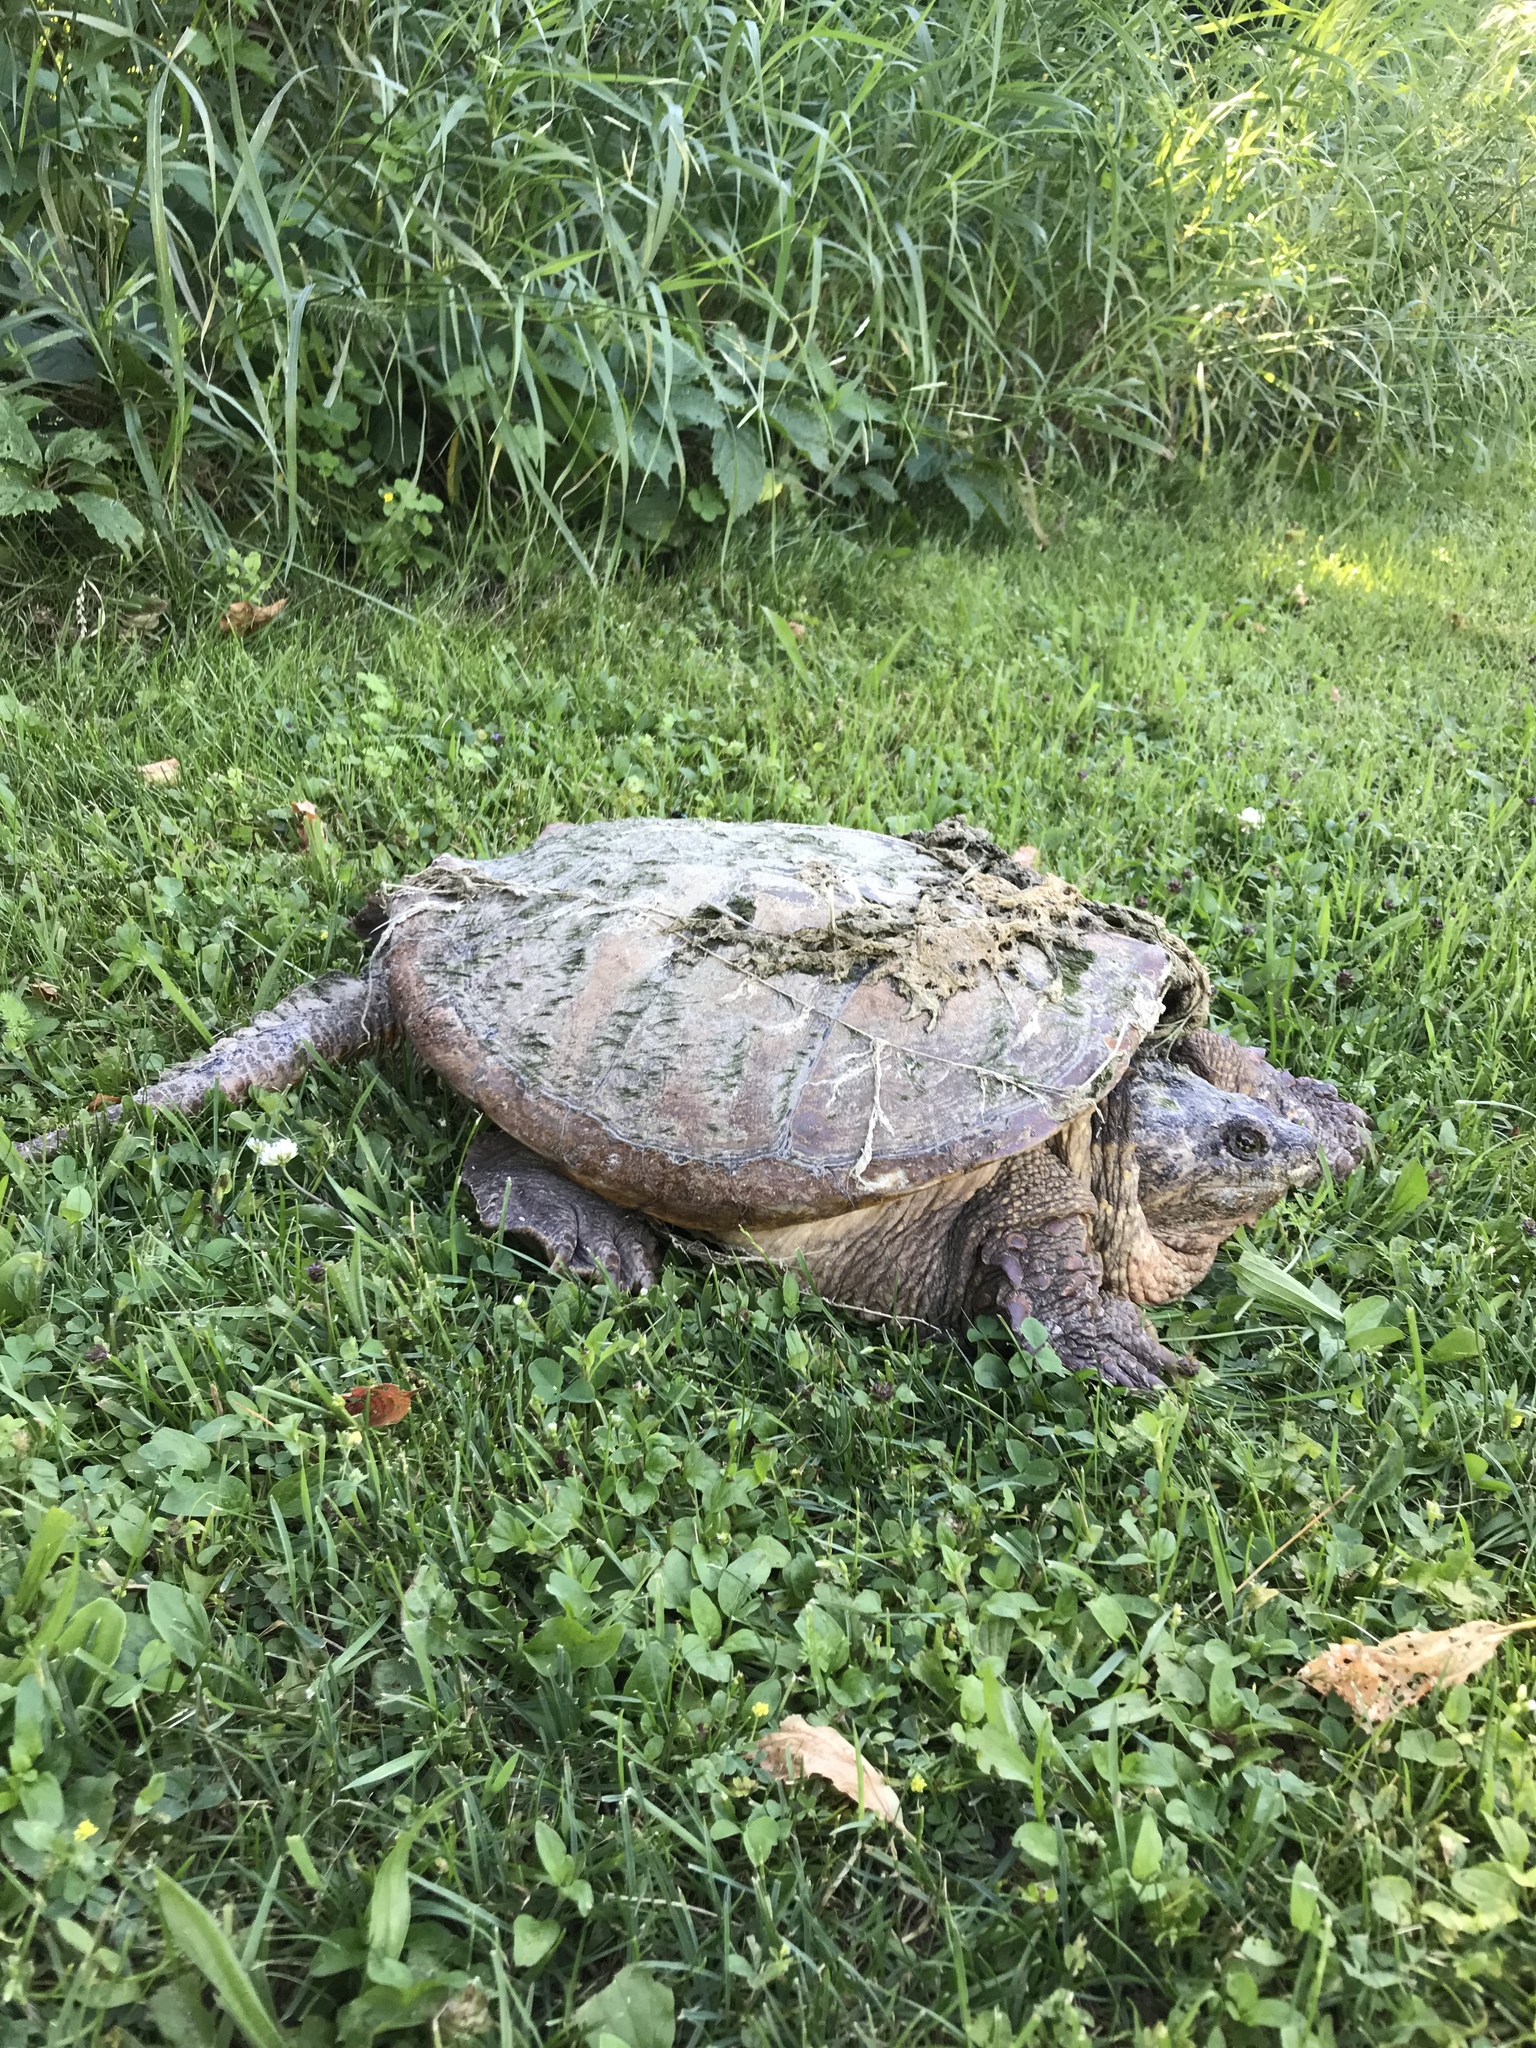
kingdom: Animalia
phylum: Chordata
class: Testudines
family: Chelydridae
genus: Chelydra
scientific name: Chelydra serpentina
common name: Common snapping turtle
